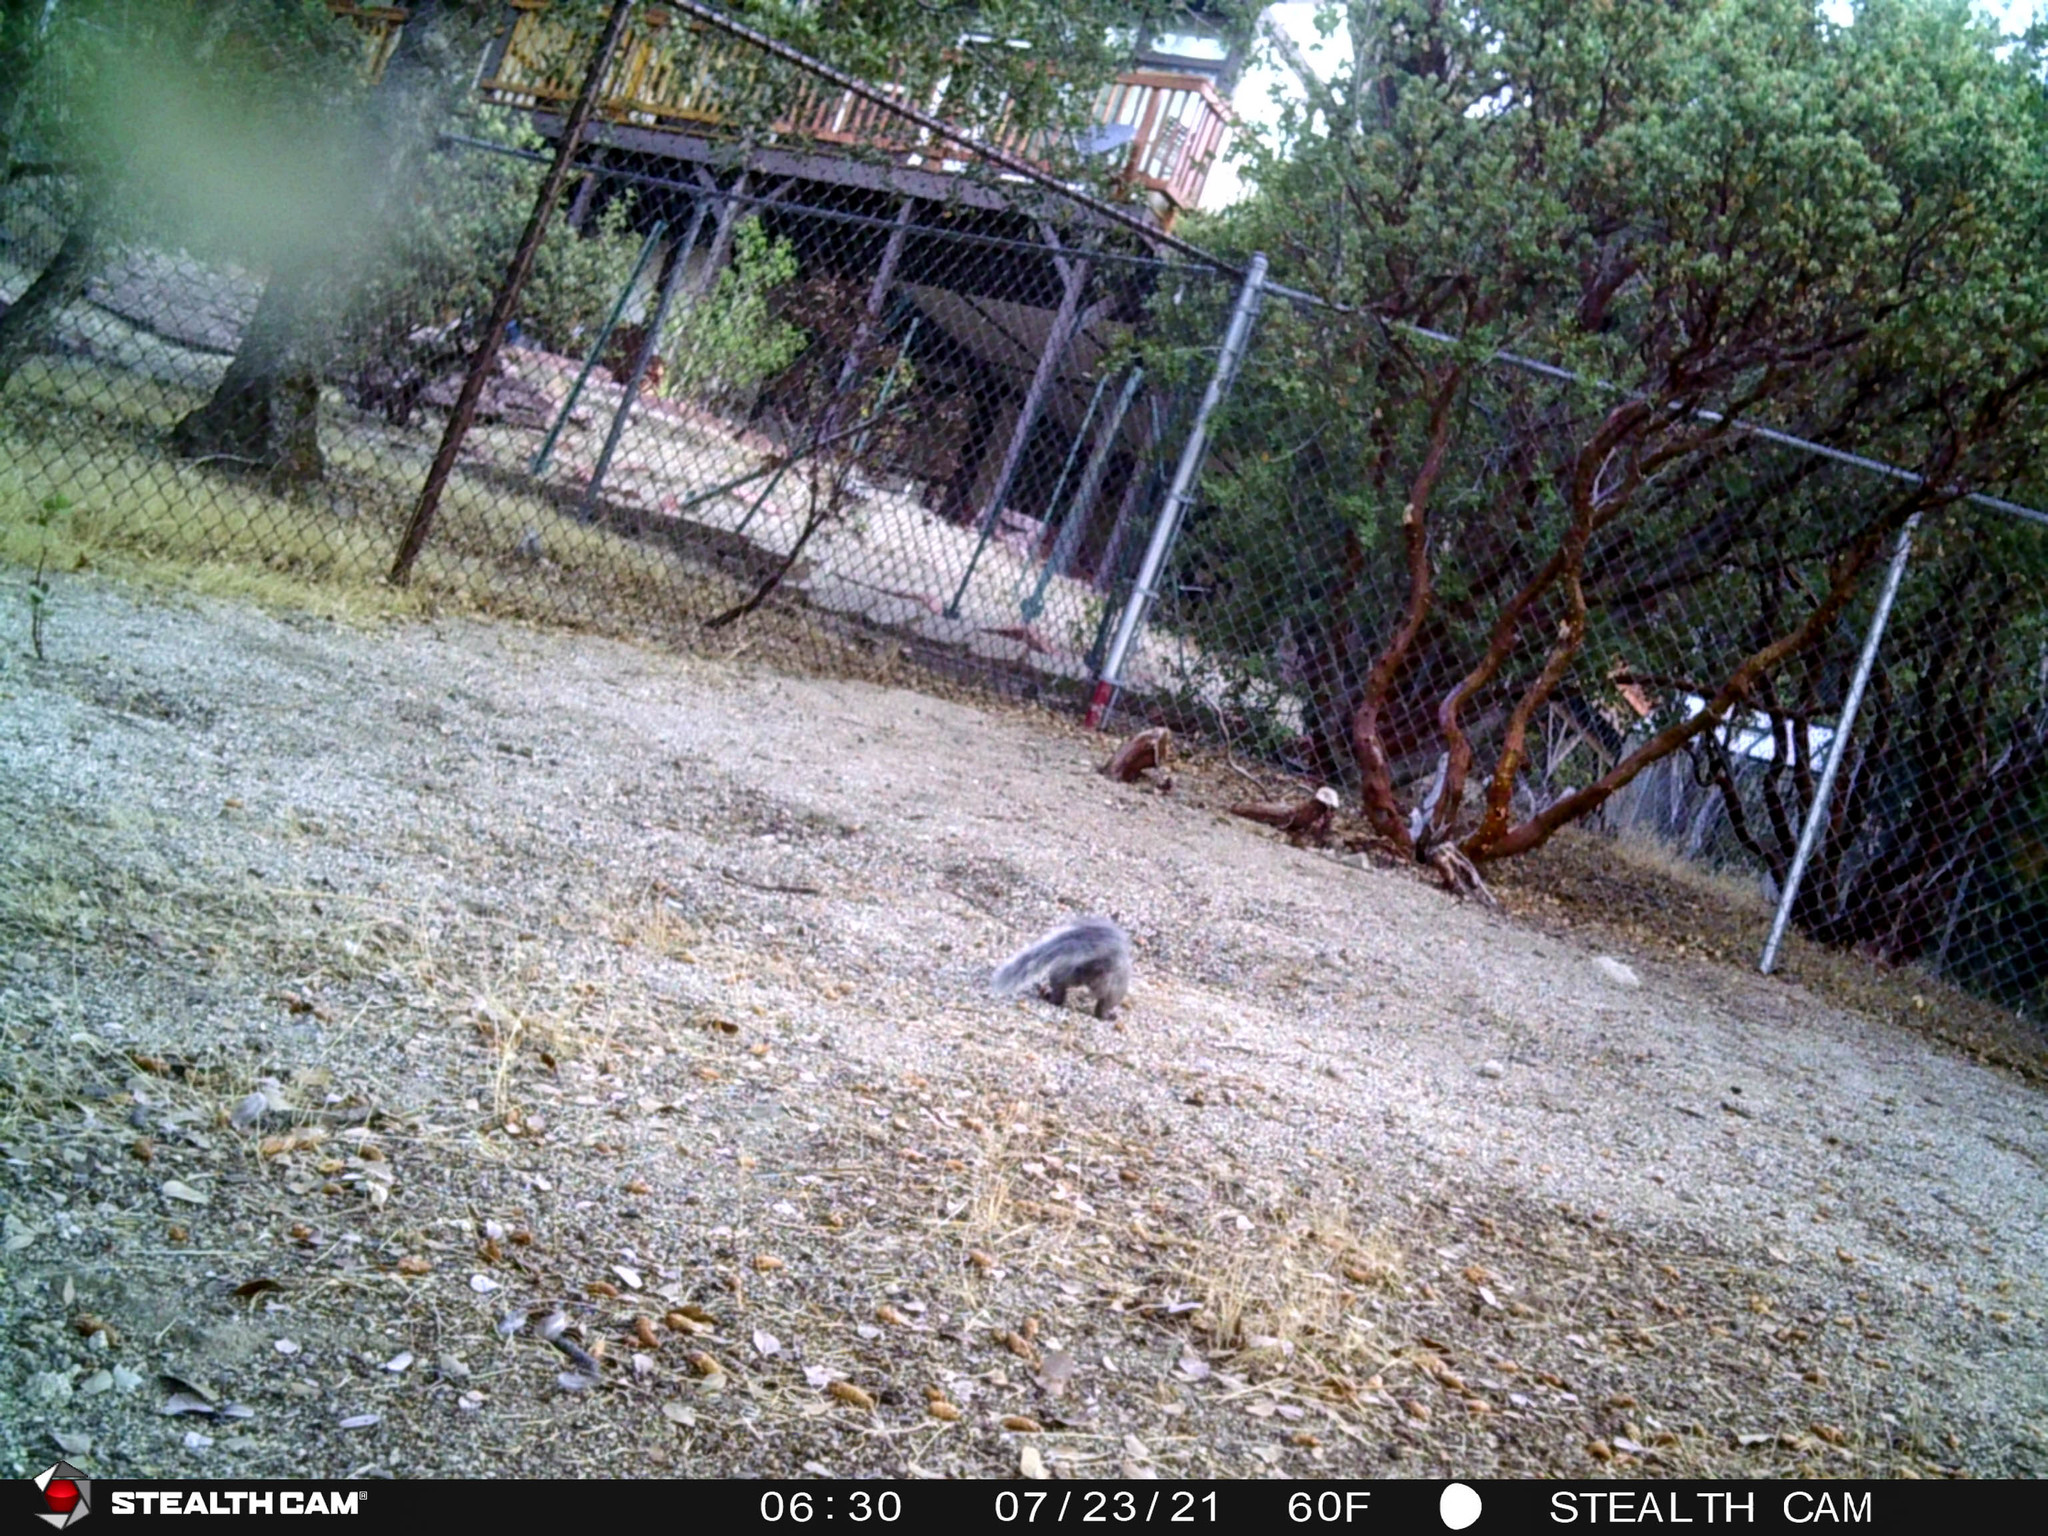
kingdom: Animalia
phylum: Chordata
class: Mammalia
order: Rodentia
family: Sciuridae
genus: Sciurus
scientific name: Sciurus griseus
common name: Western gray squirrel
